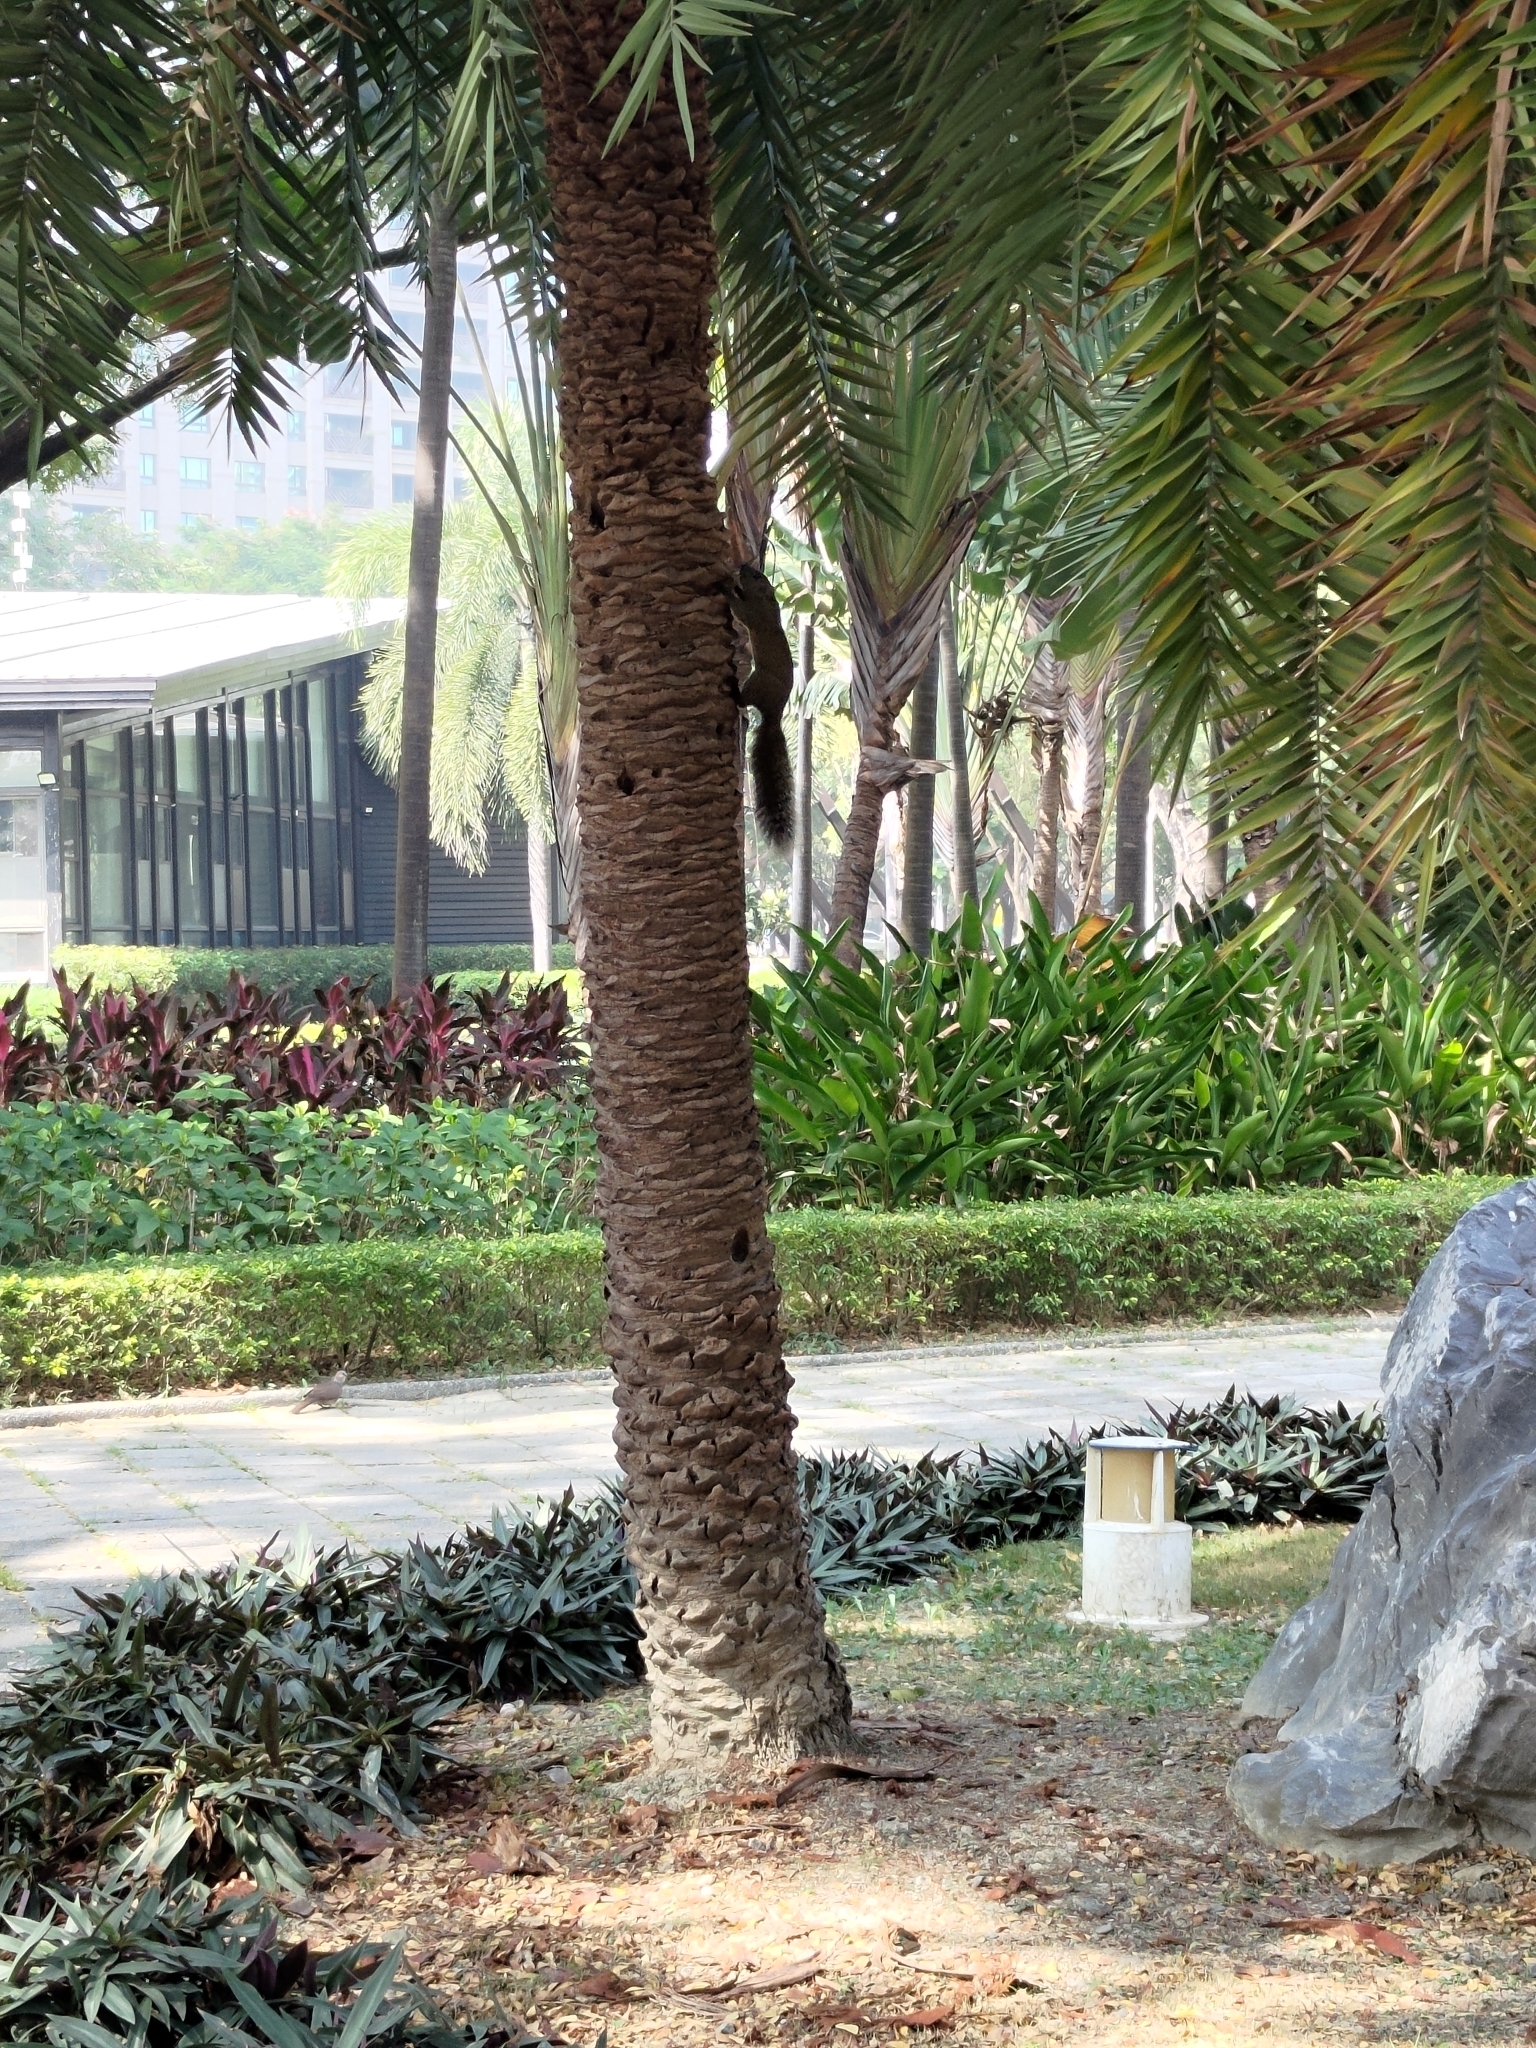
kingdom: Animalia
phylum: Chordata
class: Mammalia
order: Rodentia
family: Sciuridae
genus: Callosciurus
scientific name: Callosciurus erythraeus
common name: Pallas's squirrel
